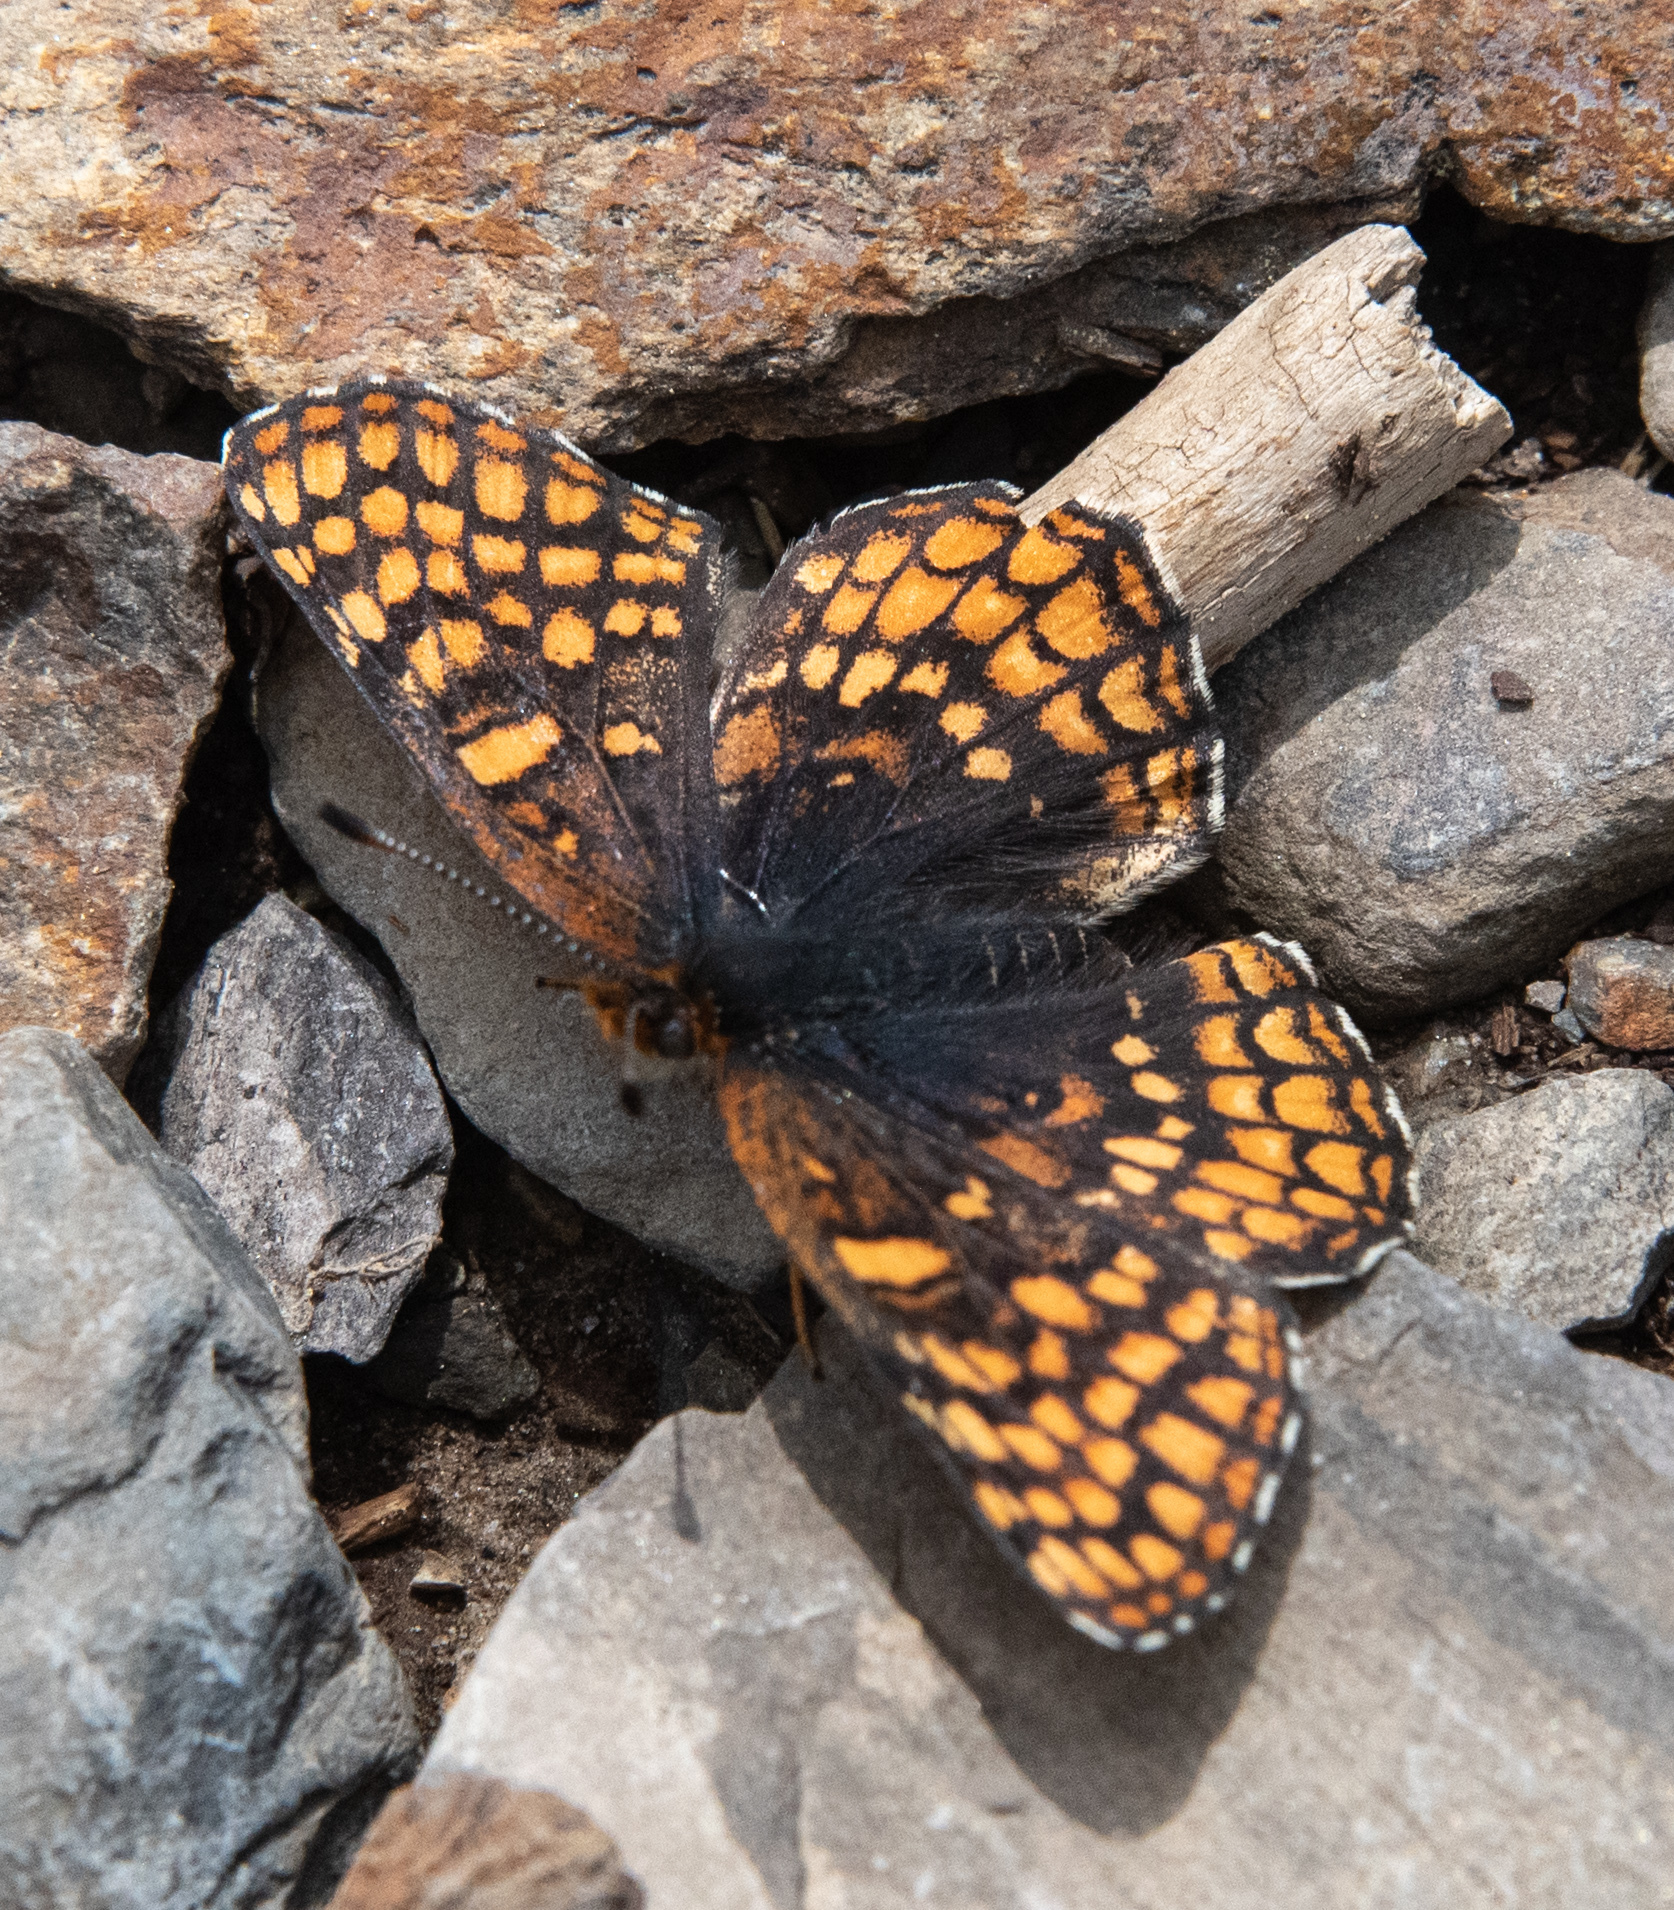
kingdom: Animalia
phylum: Arthropoda
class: Insecta
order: Lepidoptera
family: Nymphalidae
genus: Chlosyne
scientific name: Chlosyne palla
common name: Northern checkerspot
